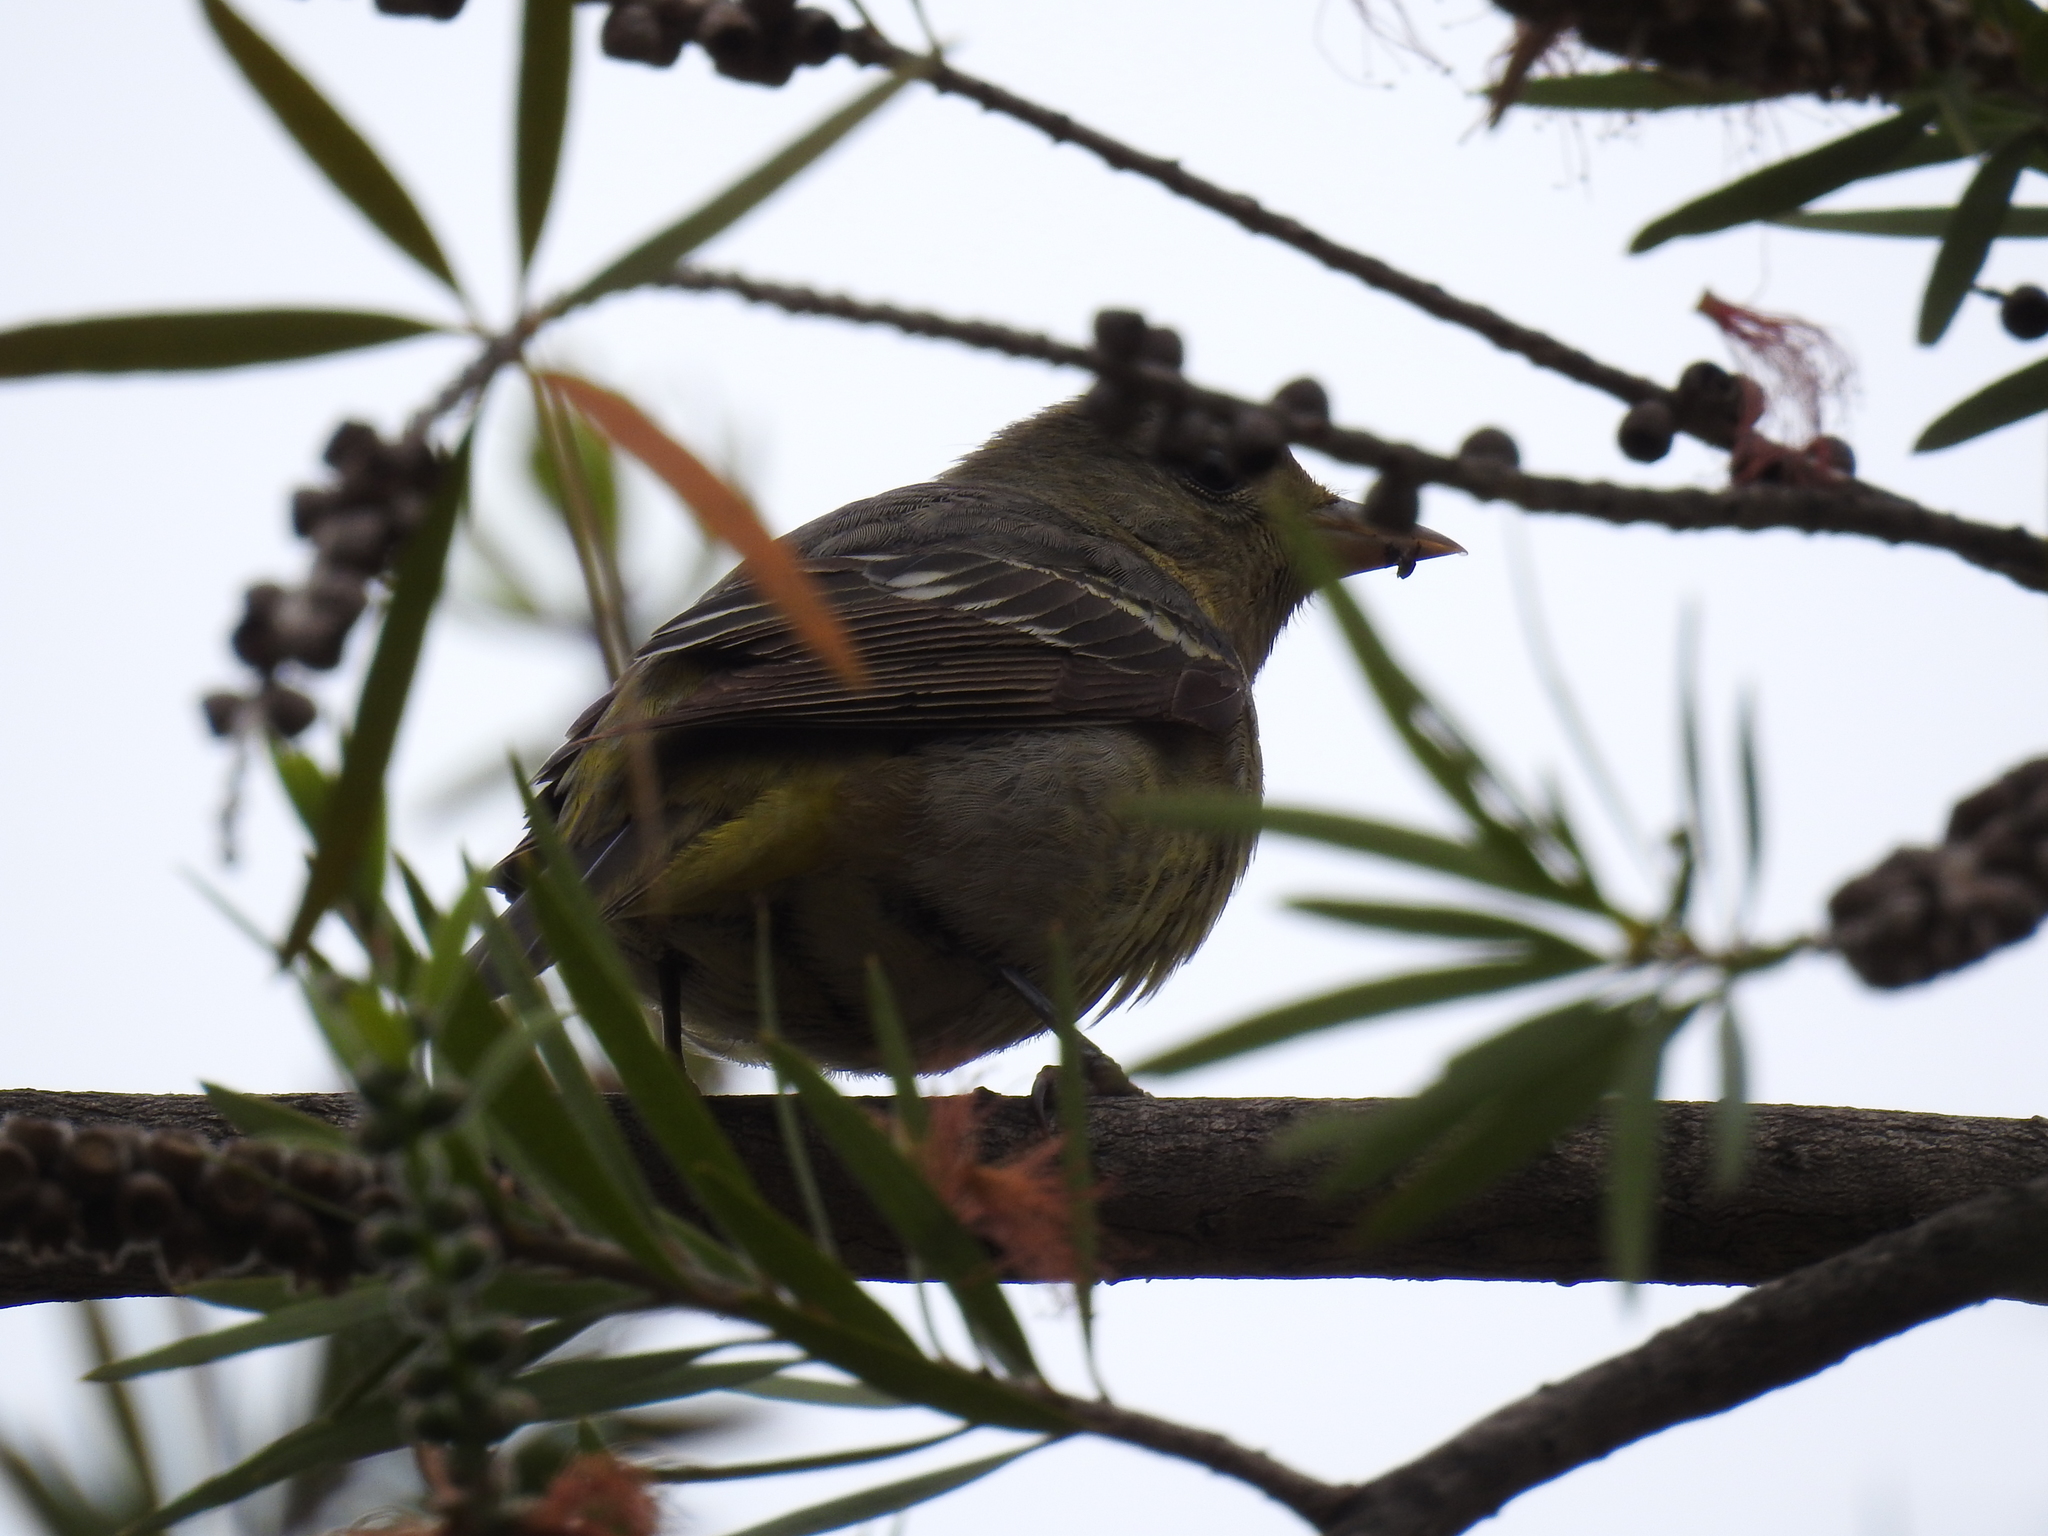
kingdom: Animalia
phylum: Chordata
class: Aves
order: Passeriformes
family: Cardinalidae
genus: Piranga
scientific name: Piranga ludoviciana
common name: Western tanager
